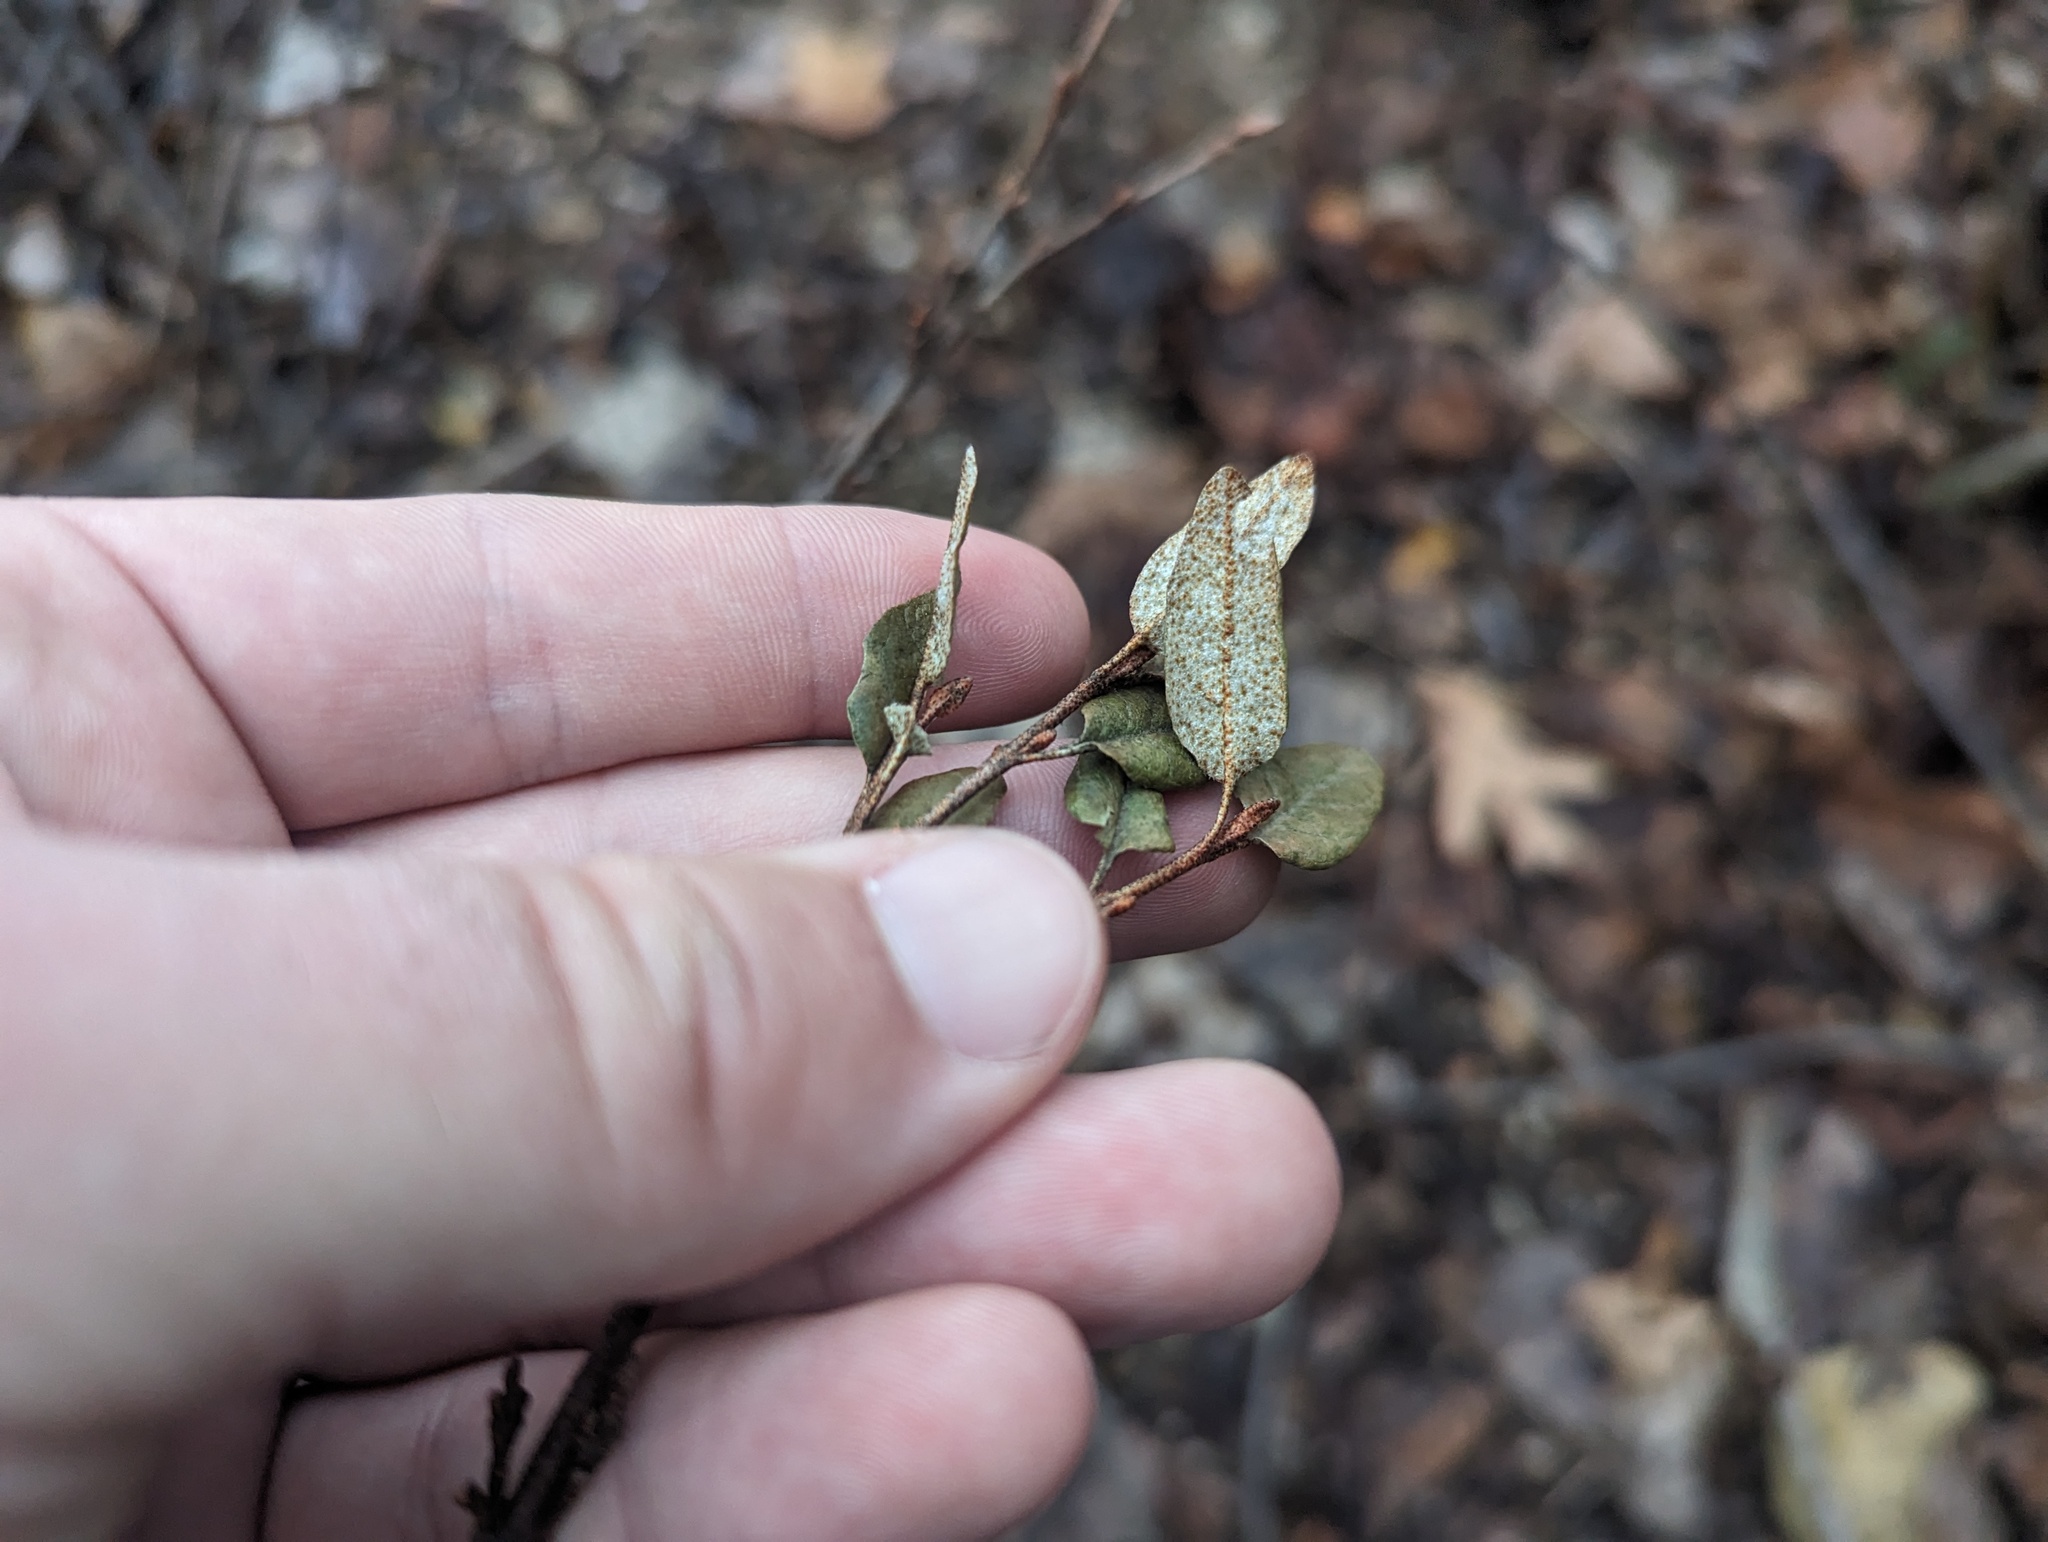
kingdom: Plantae
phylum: Tracheophyta
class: Magnoliopsida
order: Rosales
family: Elaeagnaceae
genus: Shepherdia
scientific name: Shepherdia canadensis
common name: Soapberry
